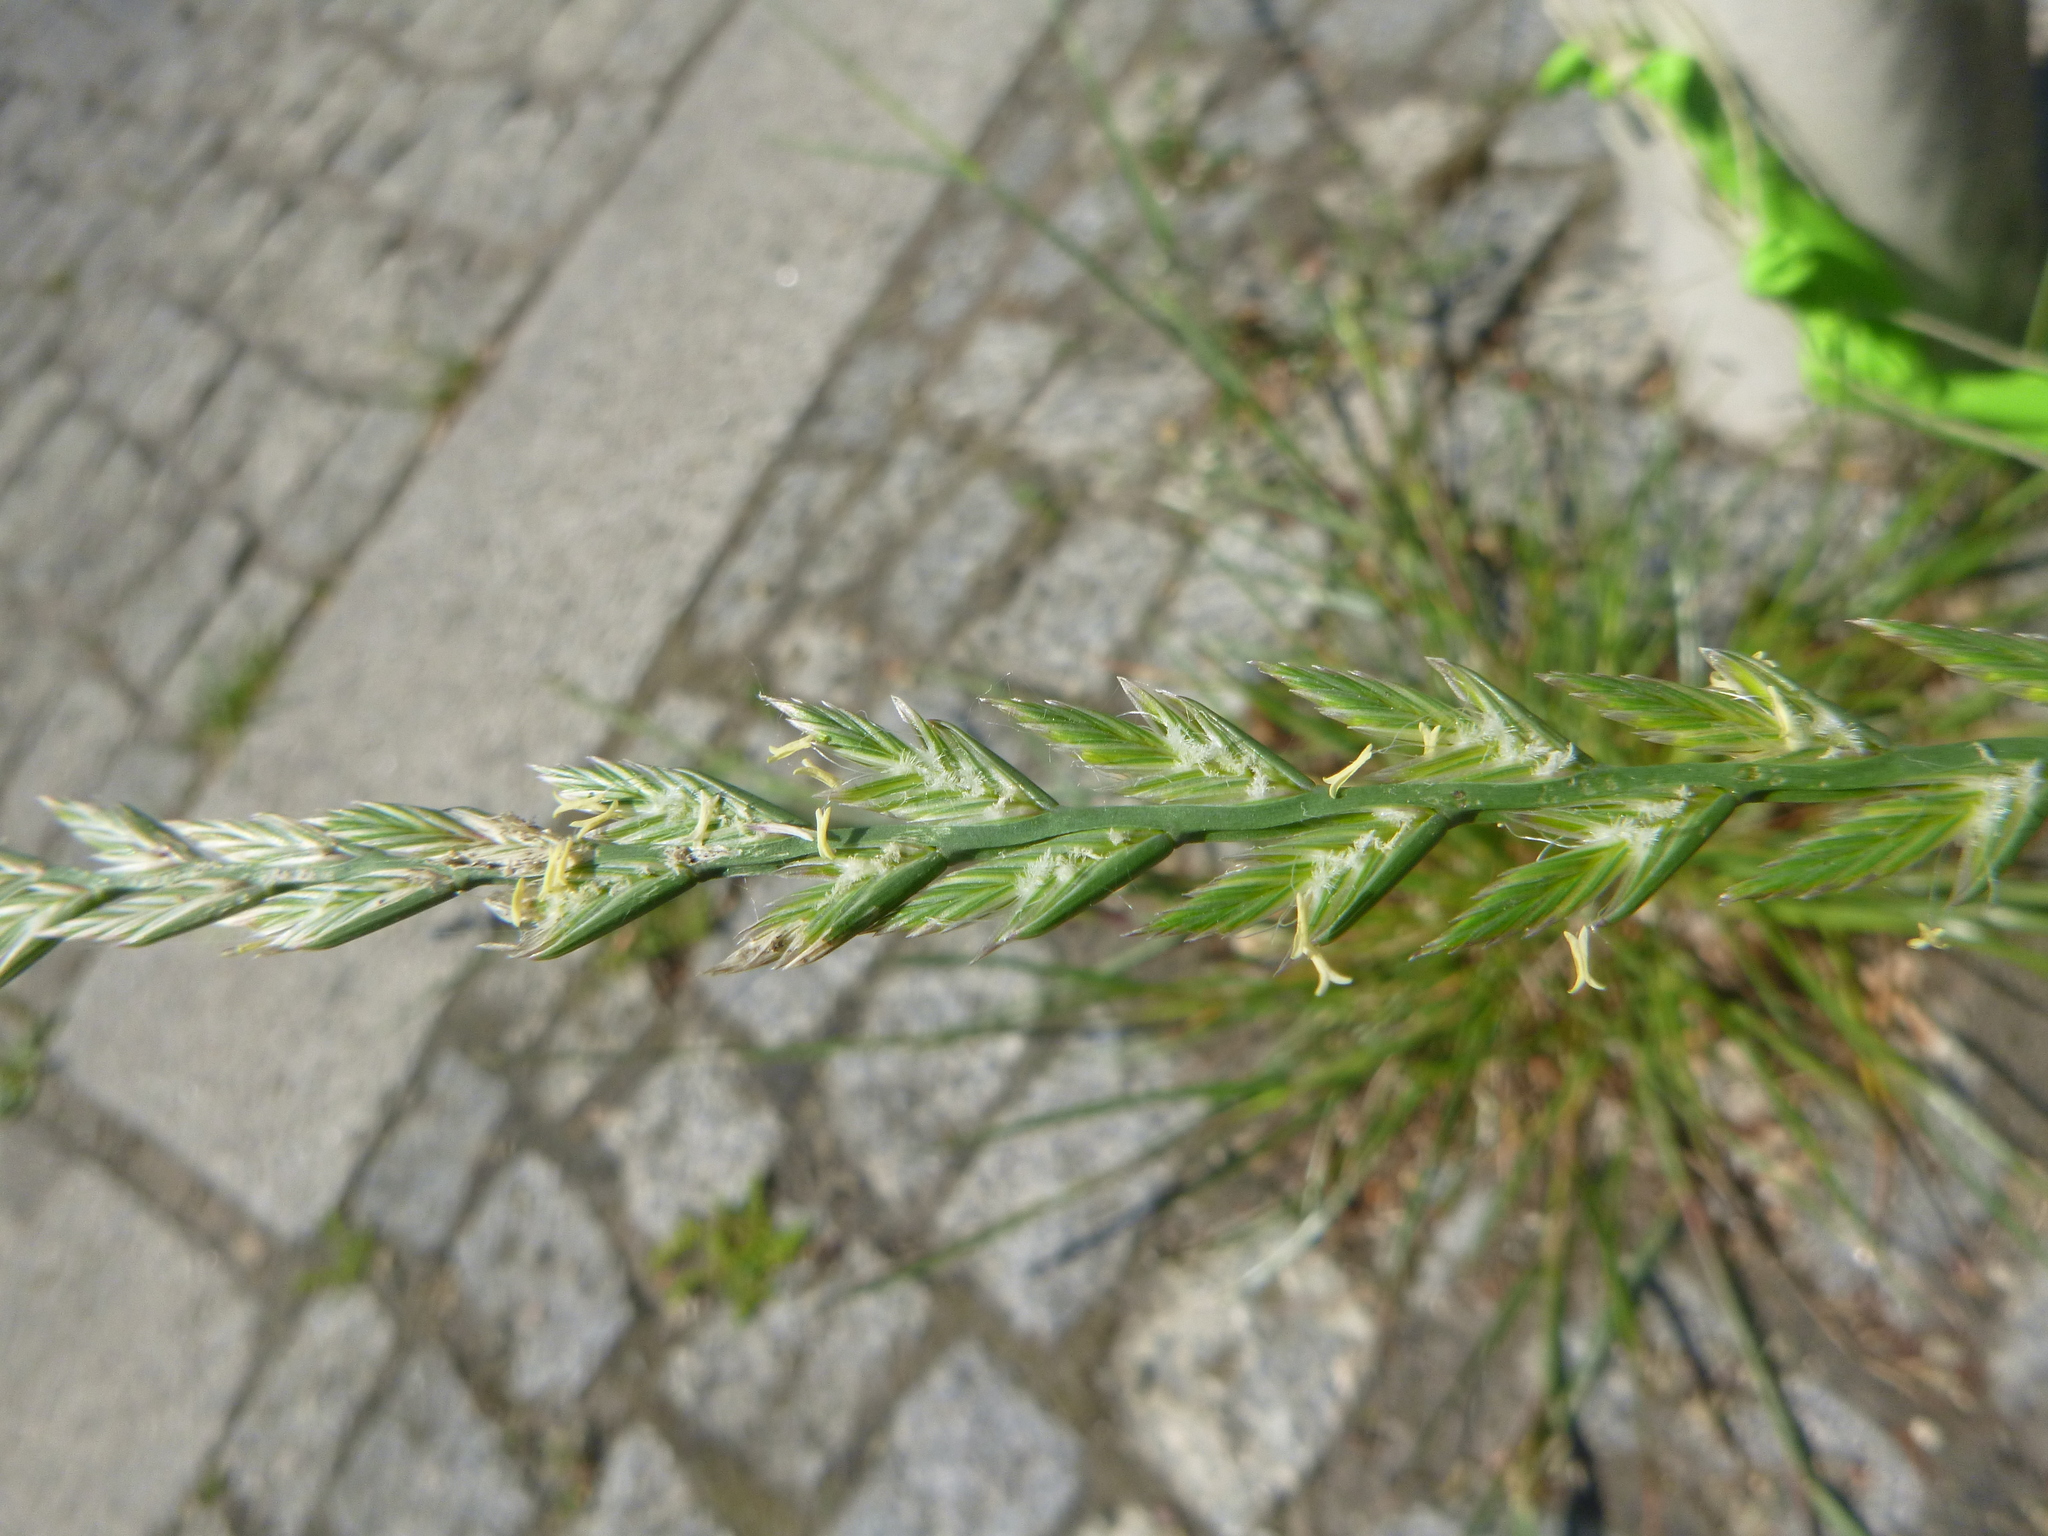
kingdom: Plantae
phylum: Tracheophyta
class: Liliopsida
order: Poales
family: Poaceae
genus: Lolium
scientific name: Lolium perenne
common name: Perennial ryegrass
